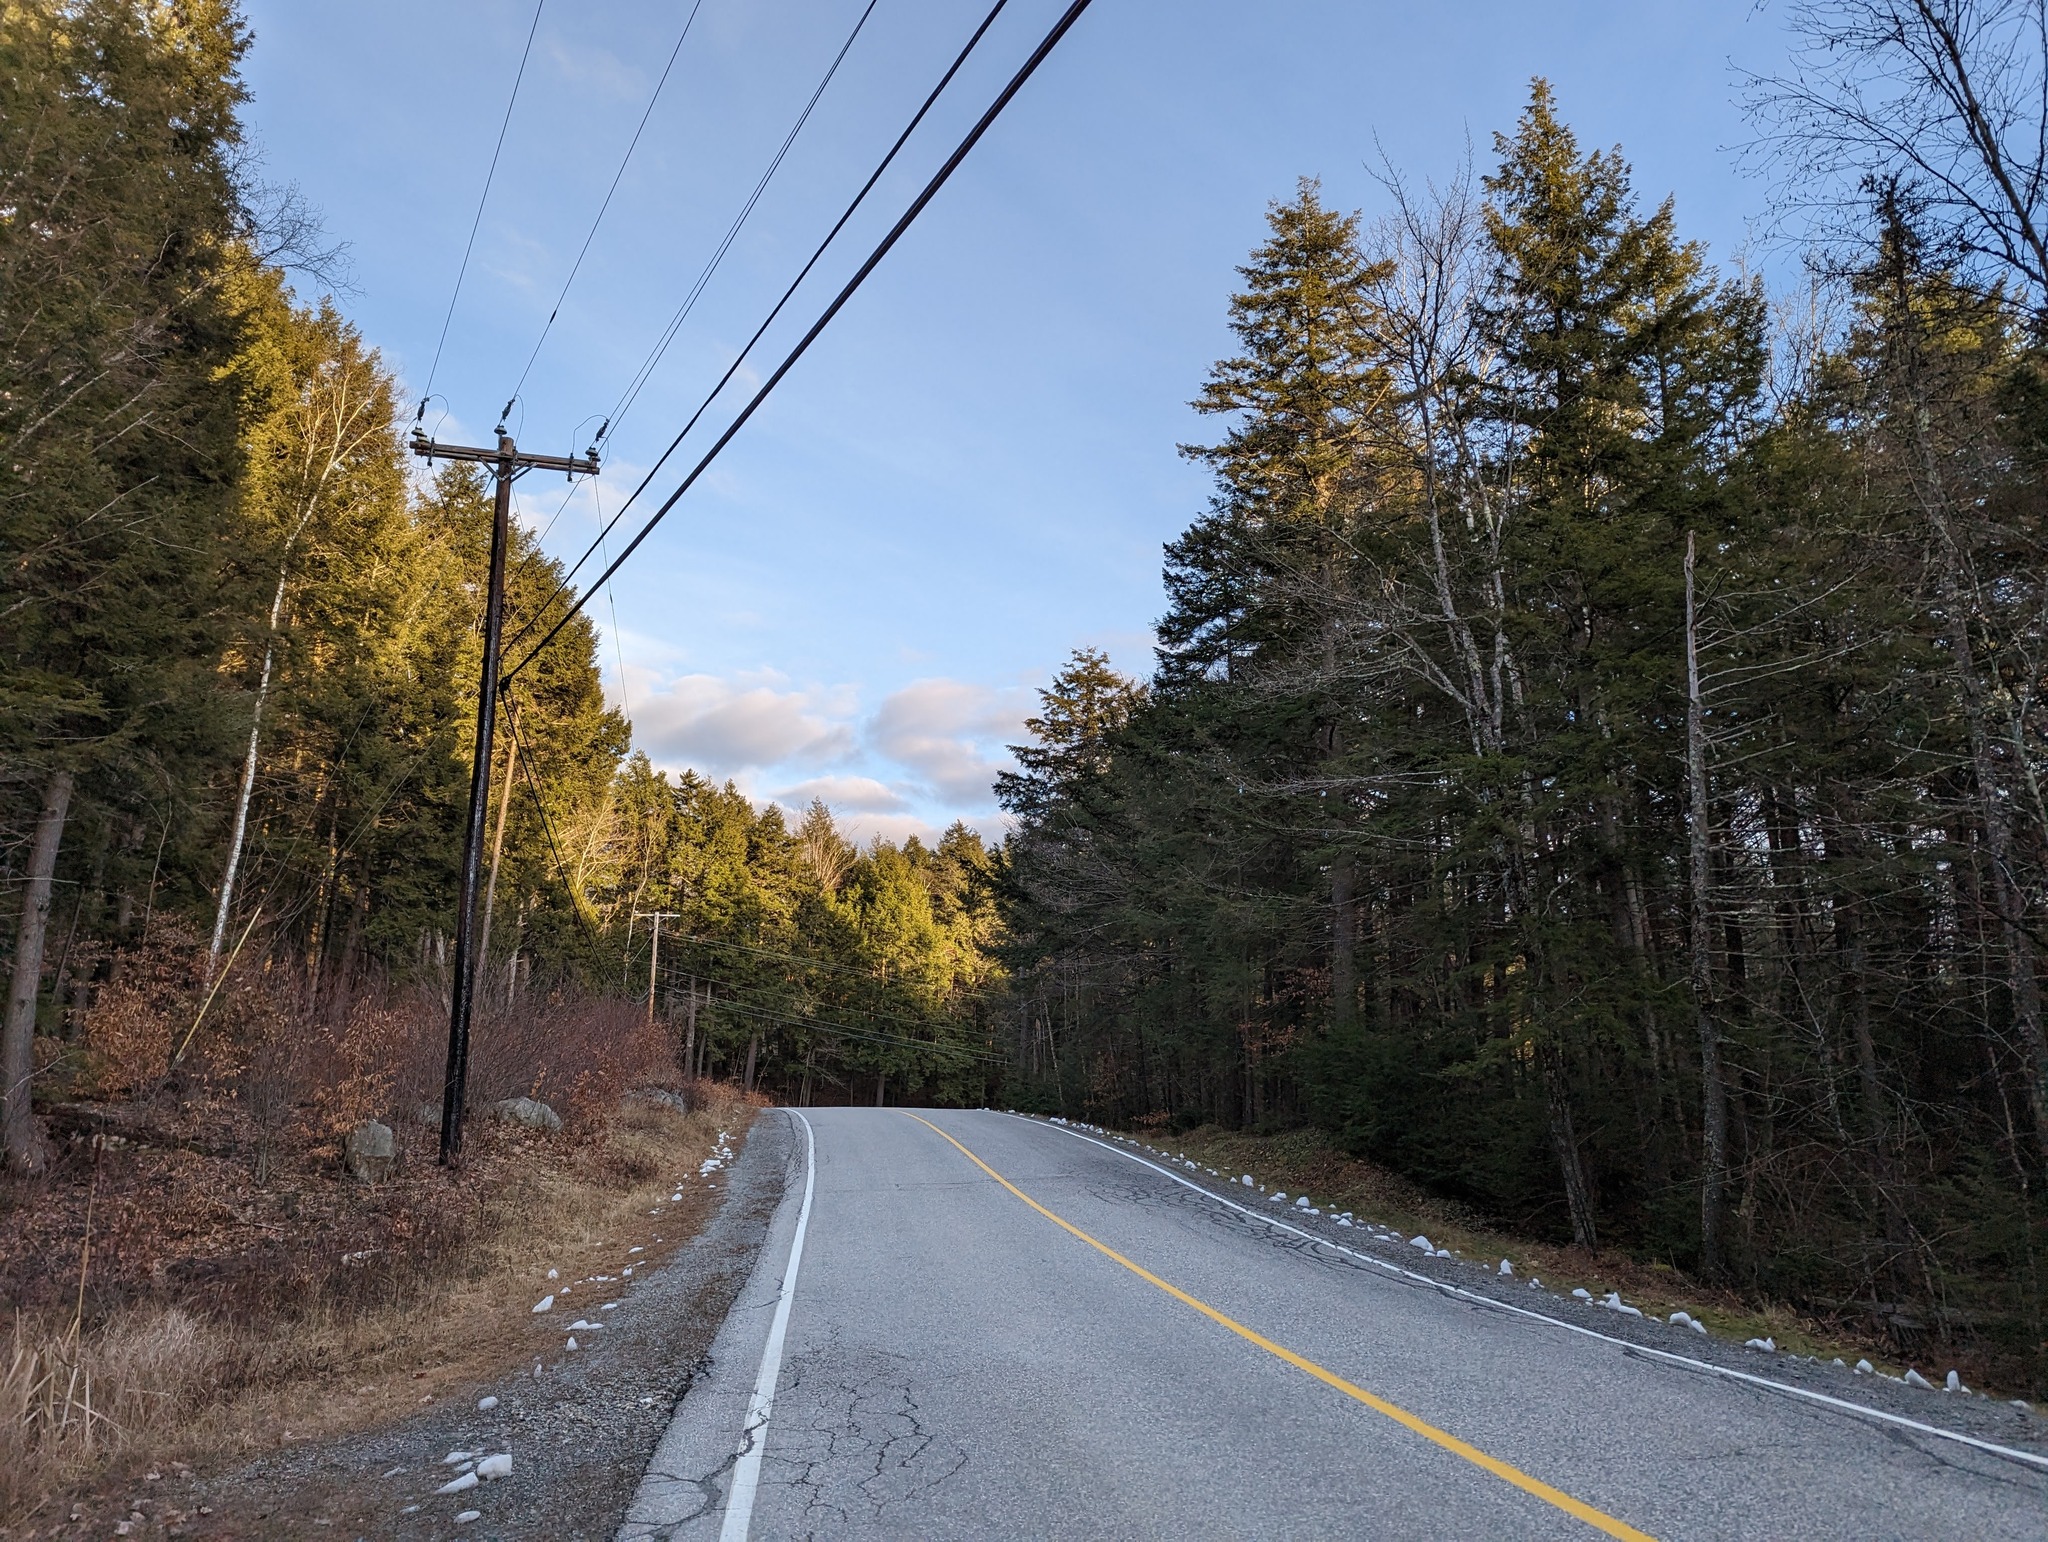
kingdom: Plantae
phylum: Tracheophyta
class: Pinopsida
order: Pinales
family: Pinaceae
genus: Tsuga
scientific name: Tsuga canadensis
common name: Eastern hemlock
